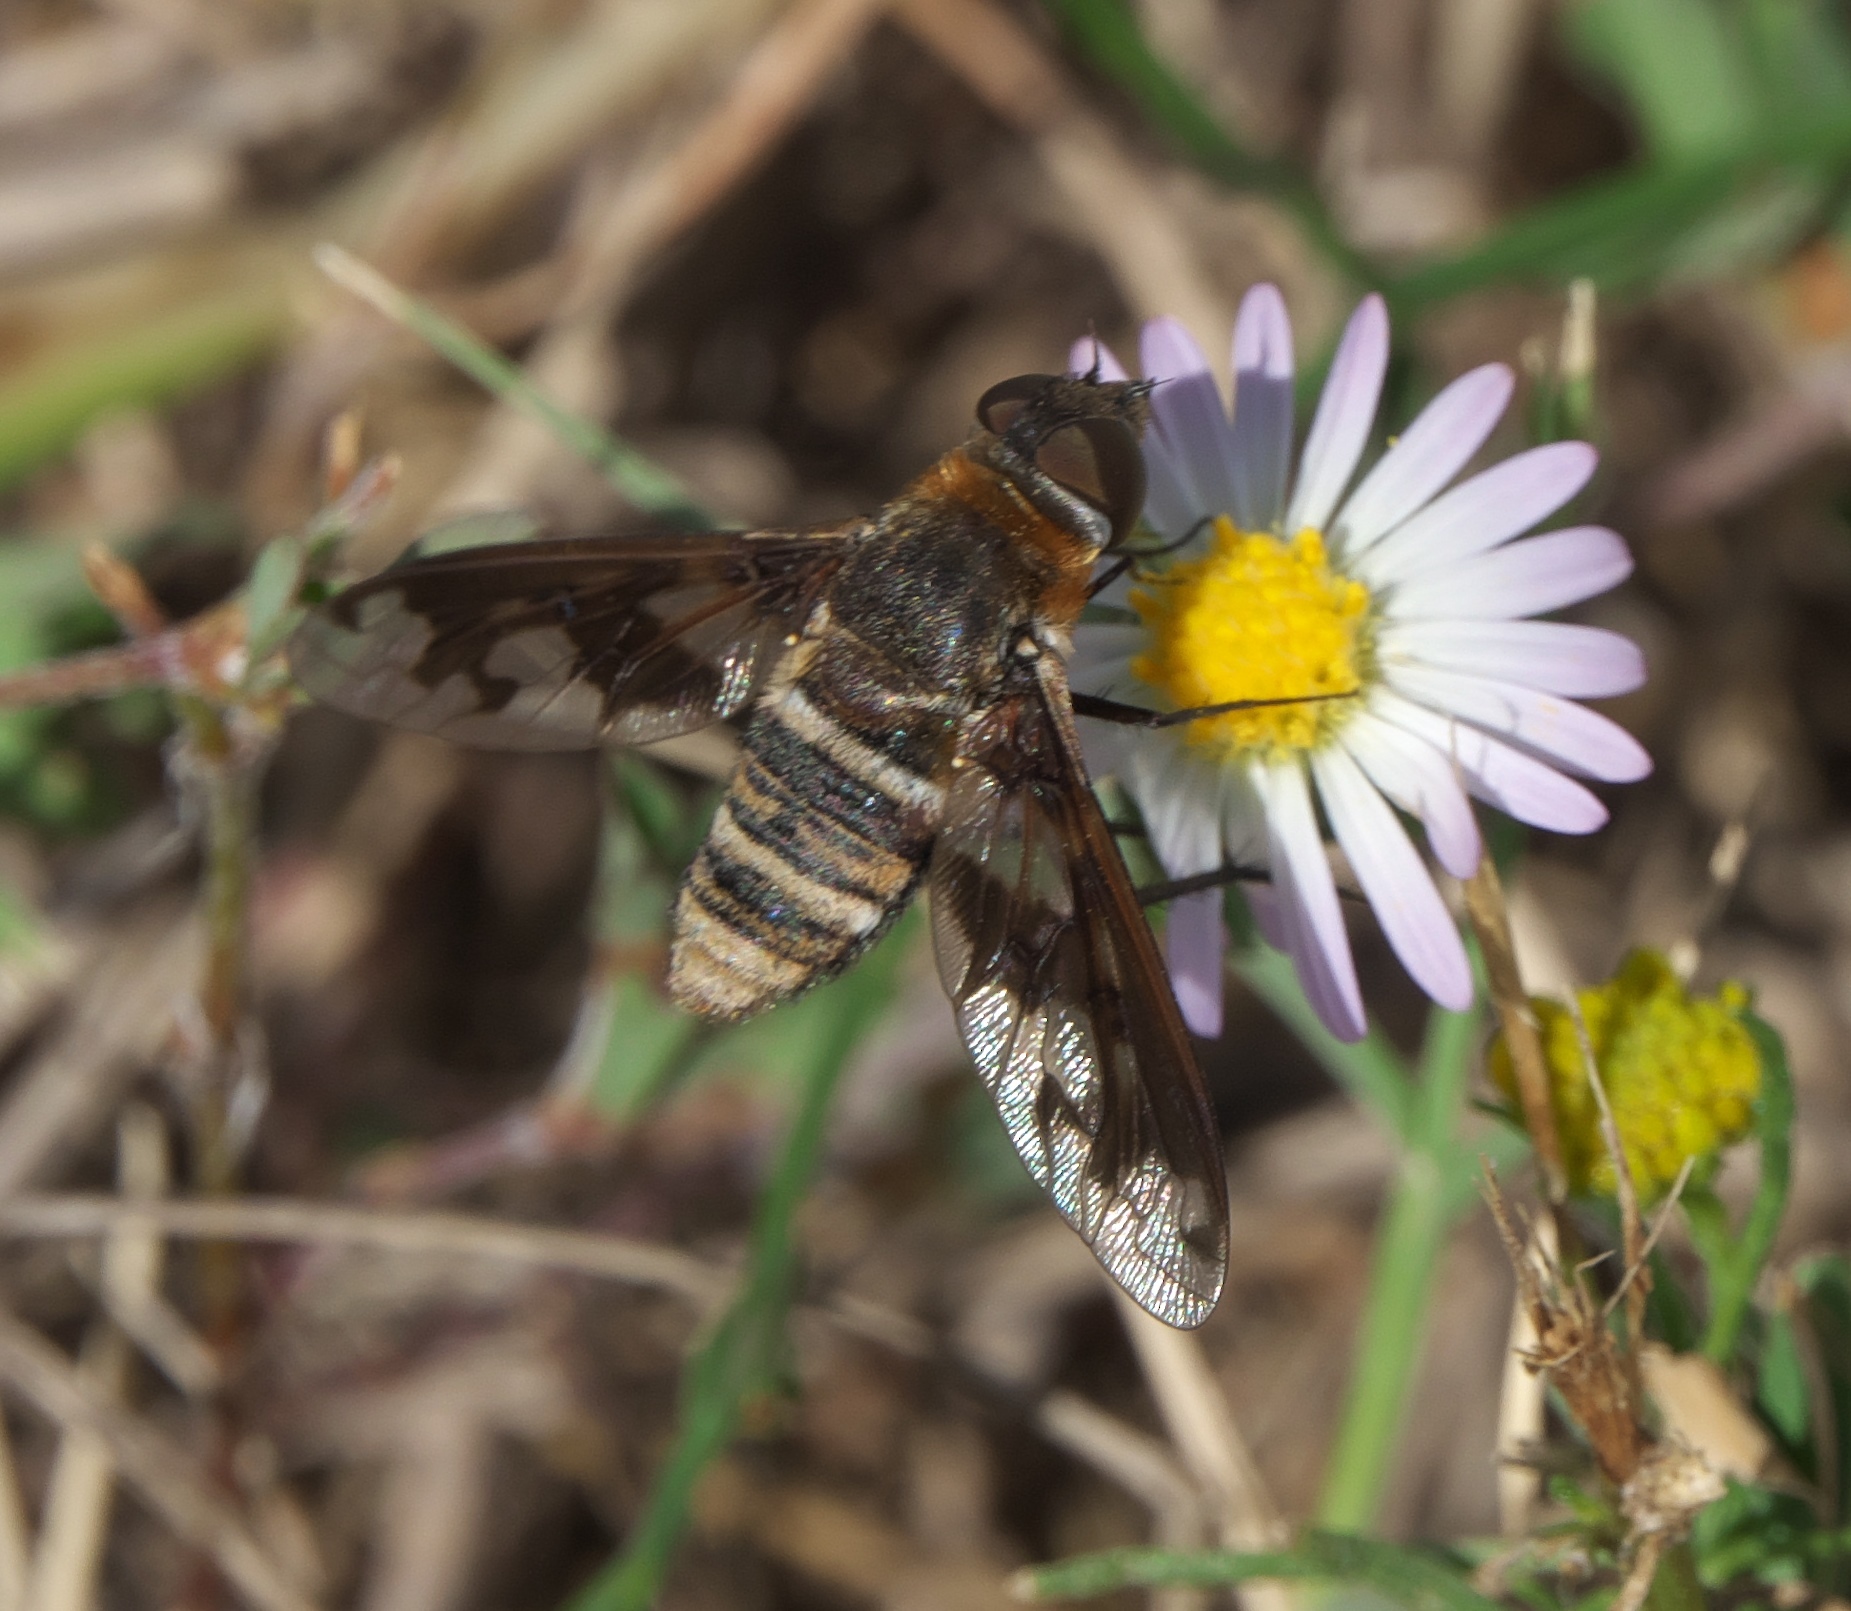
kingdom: Animalia
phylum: Arthropoda
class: Insecta
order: Diptera
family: Bombyliidae
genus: Exoprosopa
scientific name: Exoprosopa fascipennis
